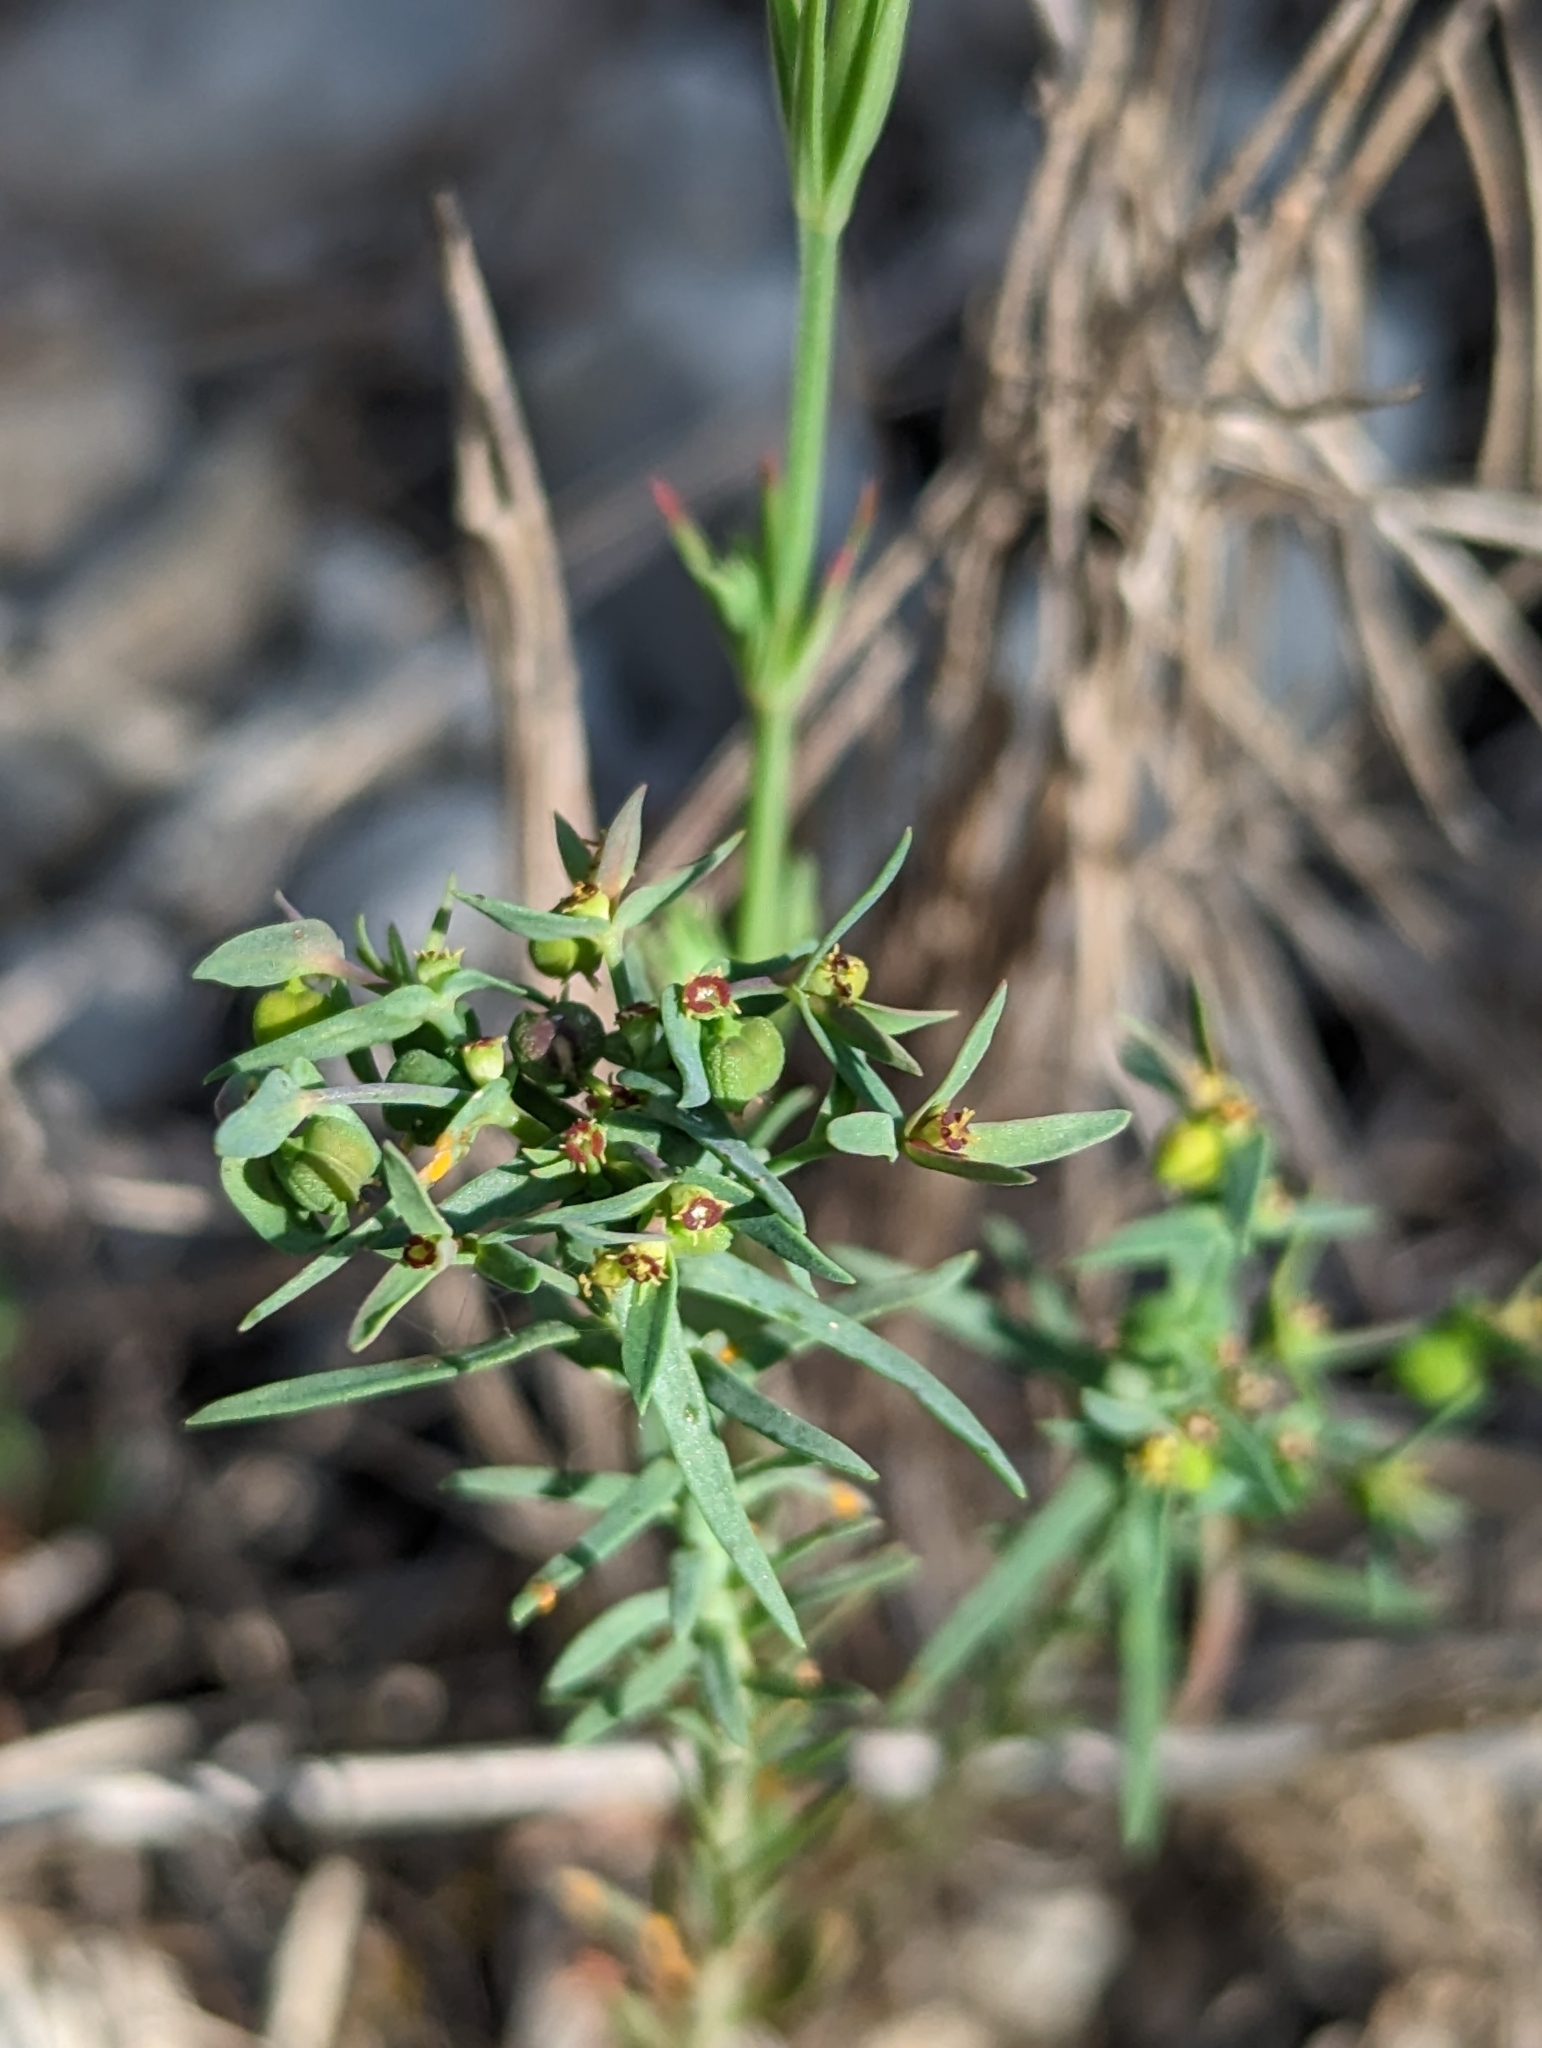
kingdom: Plantae
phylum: Tracheophyta
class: Magnoliopsida
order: Malpighiales
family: Euphorbiaceae
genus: Euphorbia
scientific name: Euphorbia exigua
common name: Dwarf spurge
